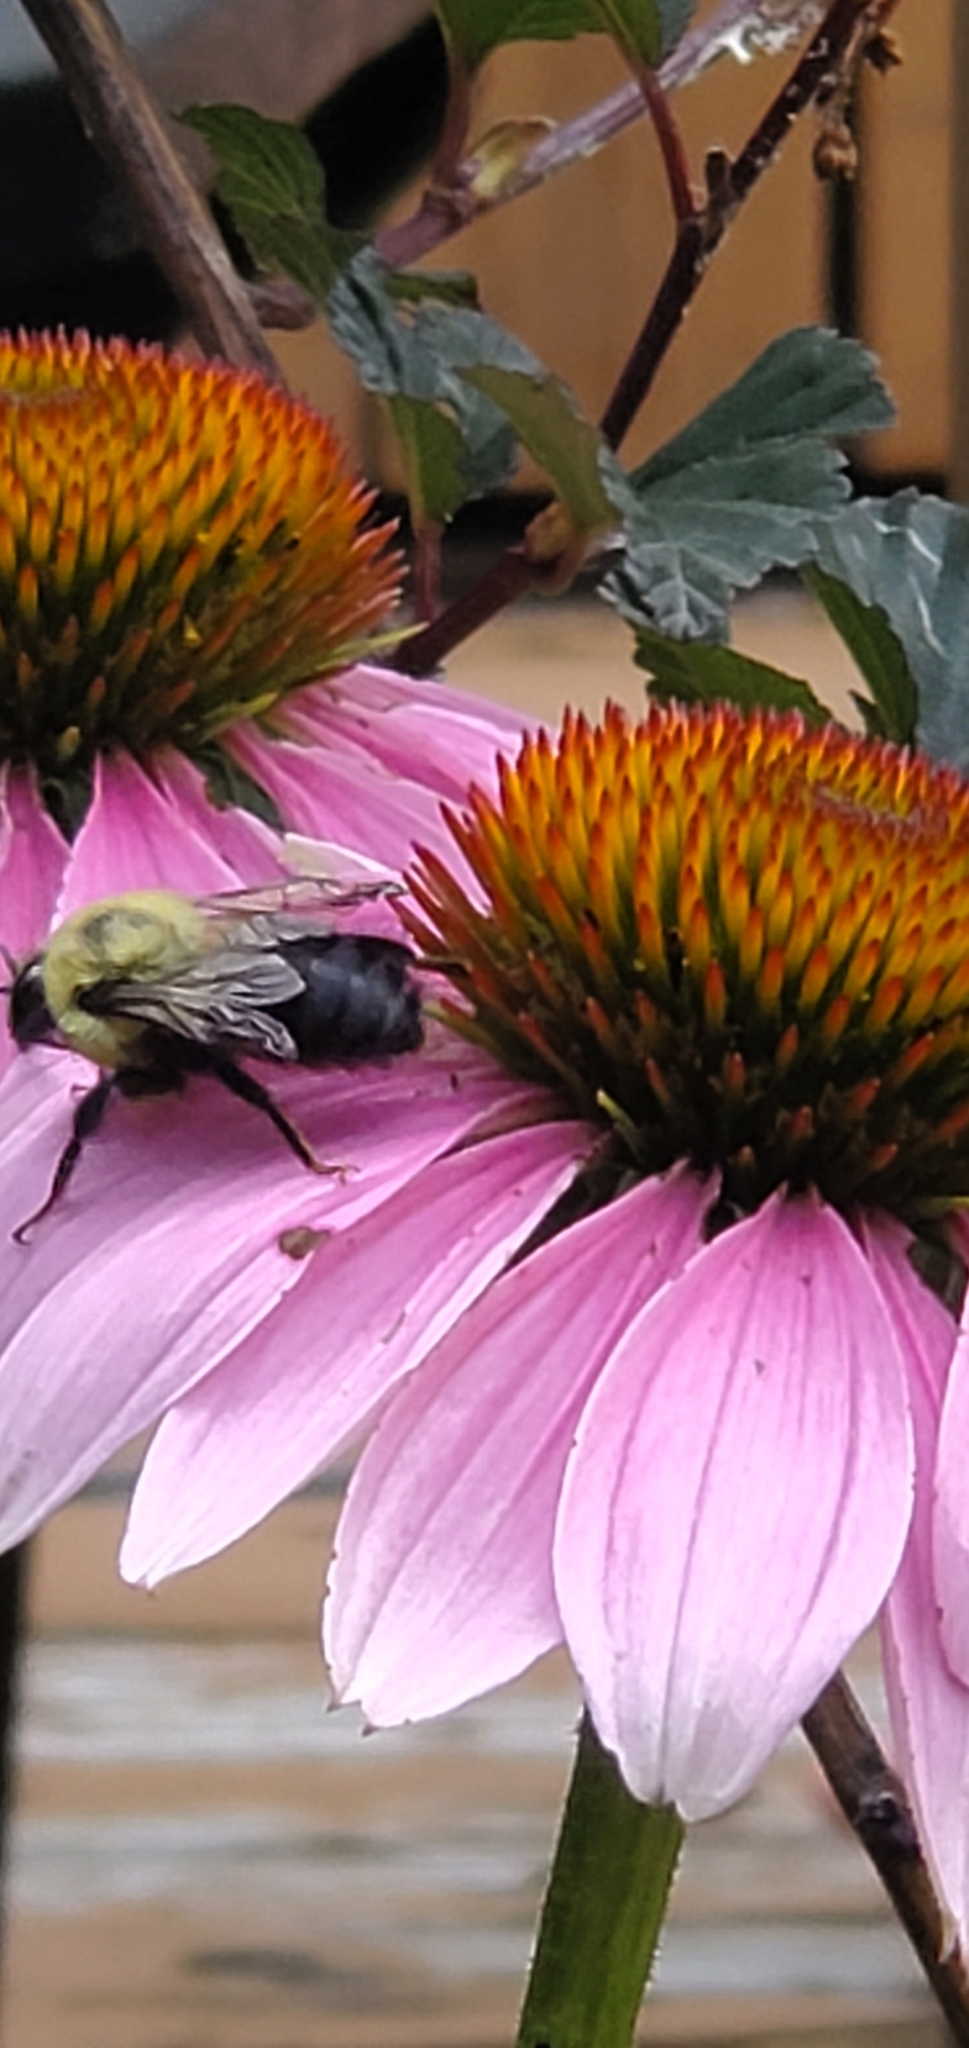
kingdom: Animalia
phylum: Arthropoda
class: Insecta
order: Hymenoptera
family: Apidae
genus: Bombus
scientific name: Bombus griseocollis
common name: Brown-belted bumble bee
